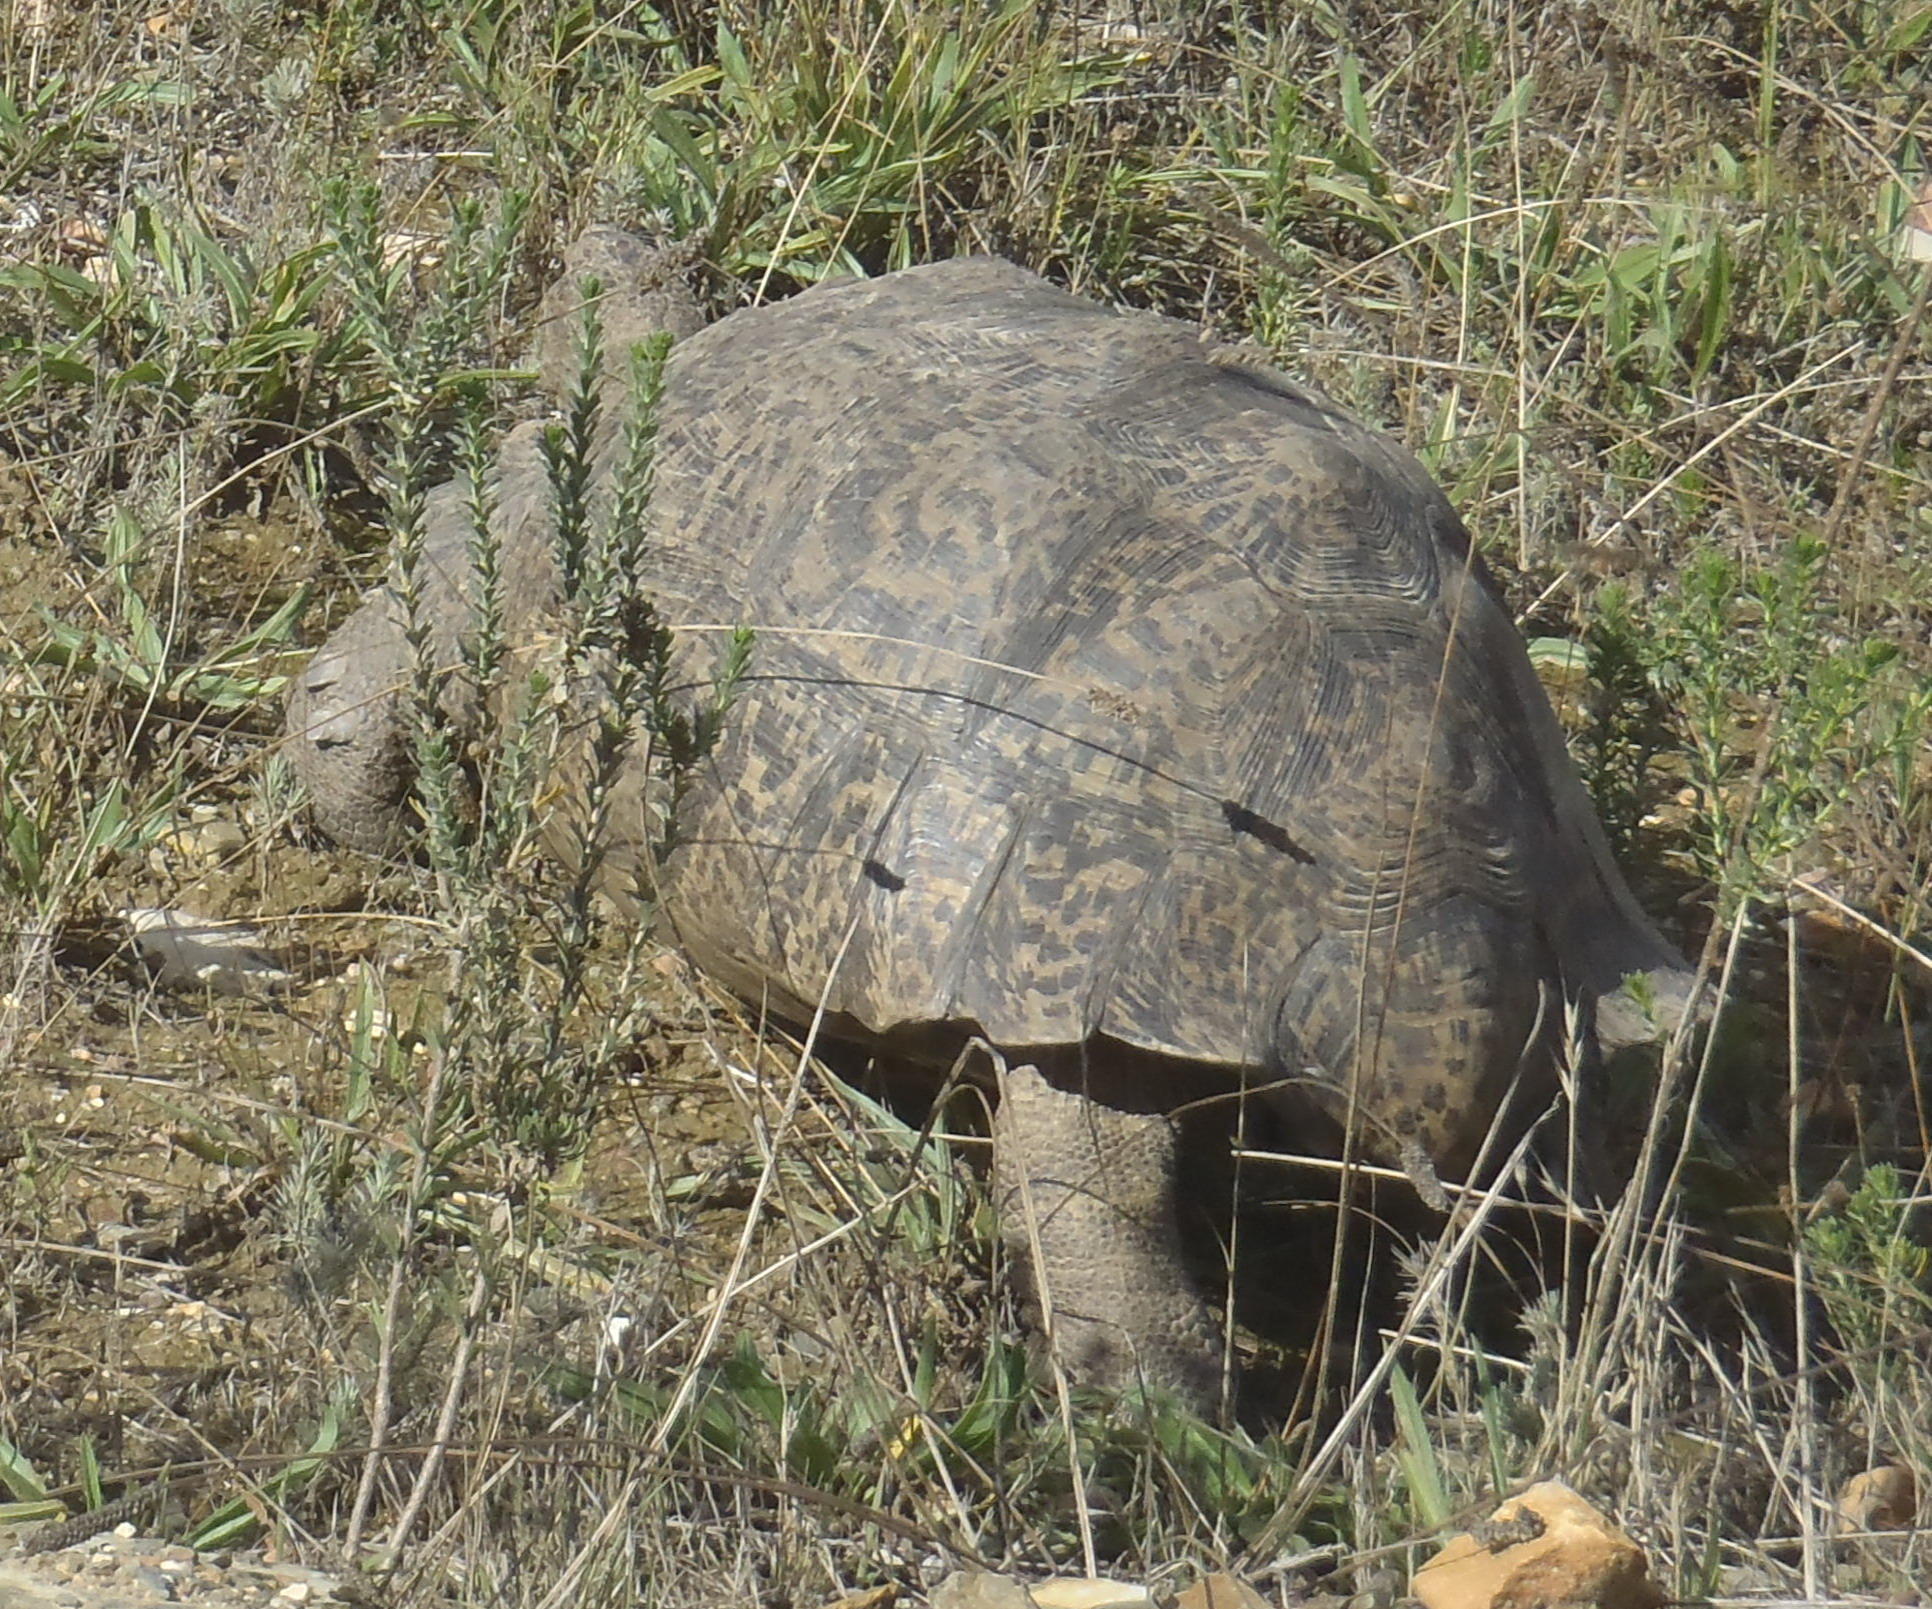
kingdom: Animalia
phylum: Chordata
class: Testudines
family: Testudinidae
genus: Stigmochelys
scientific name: Stigmochelys pardalis
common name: Leopard tortoise
